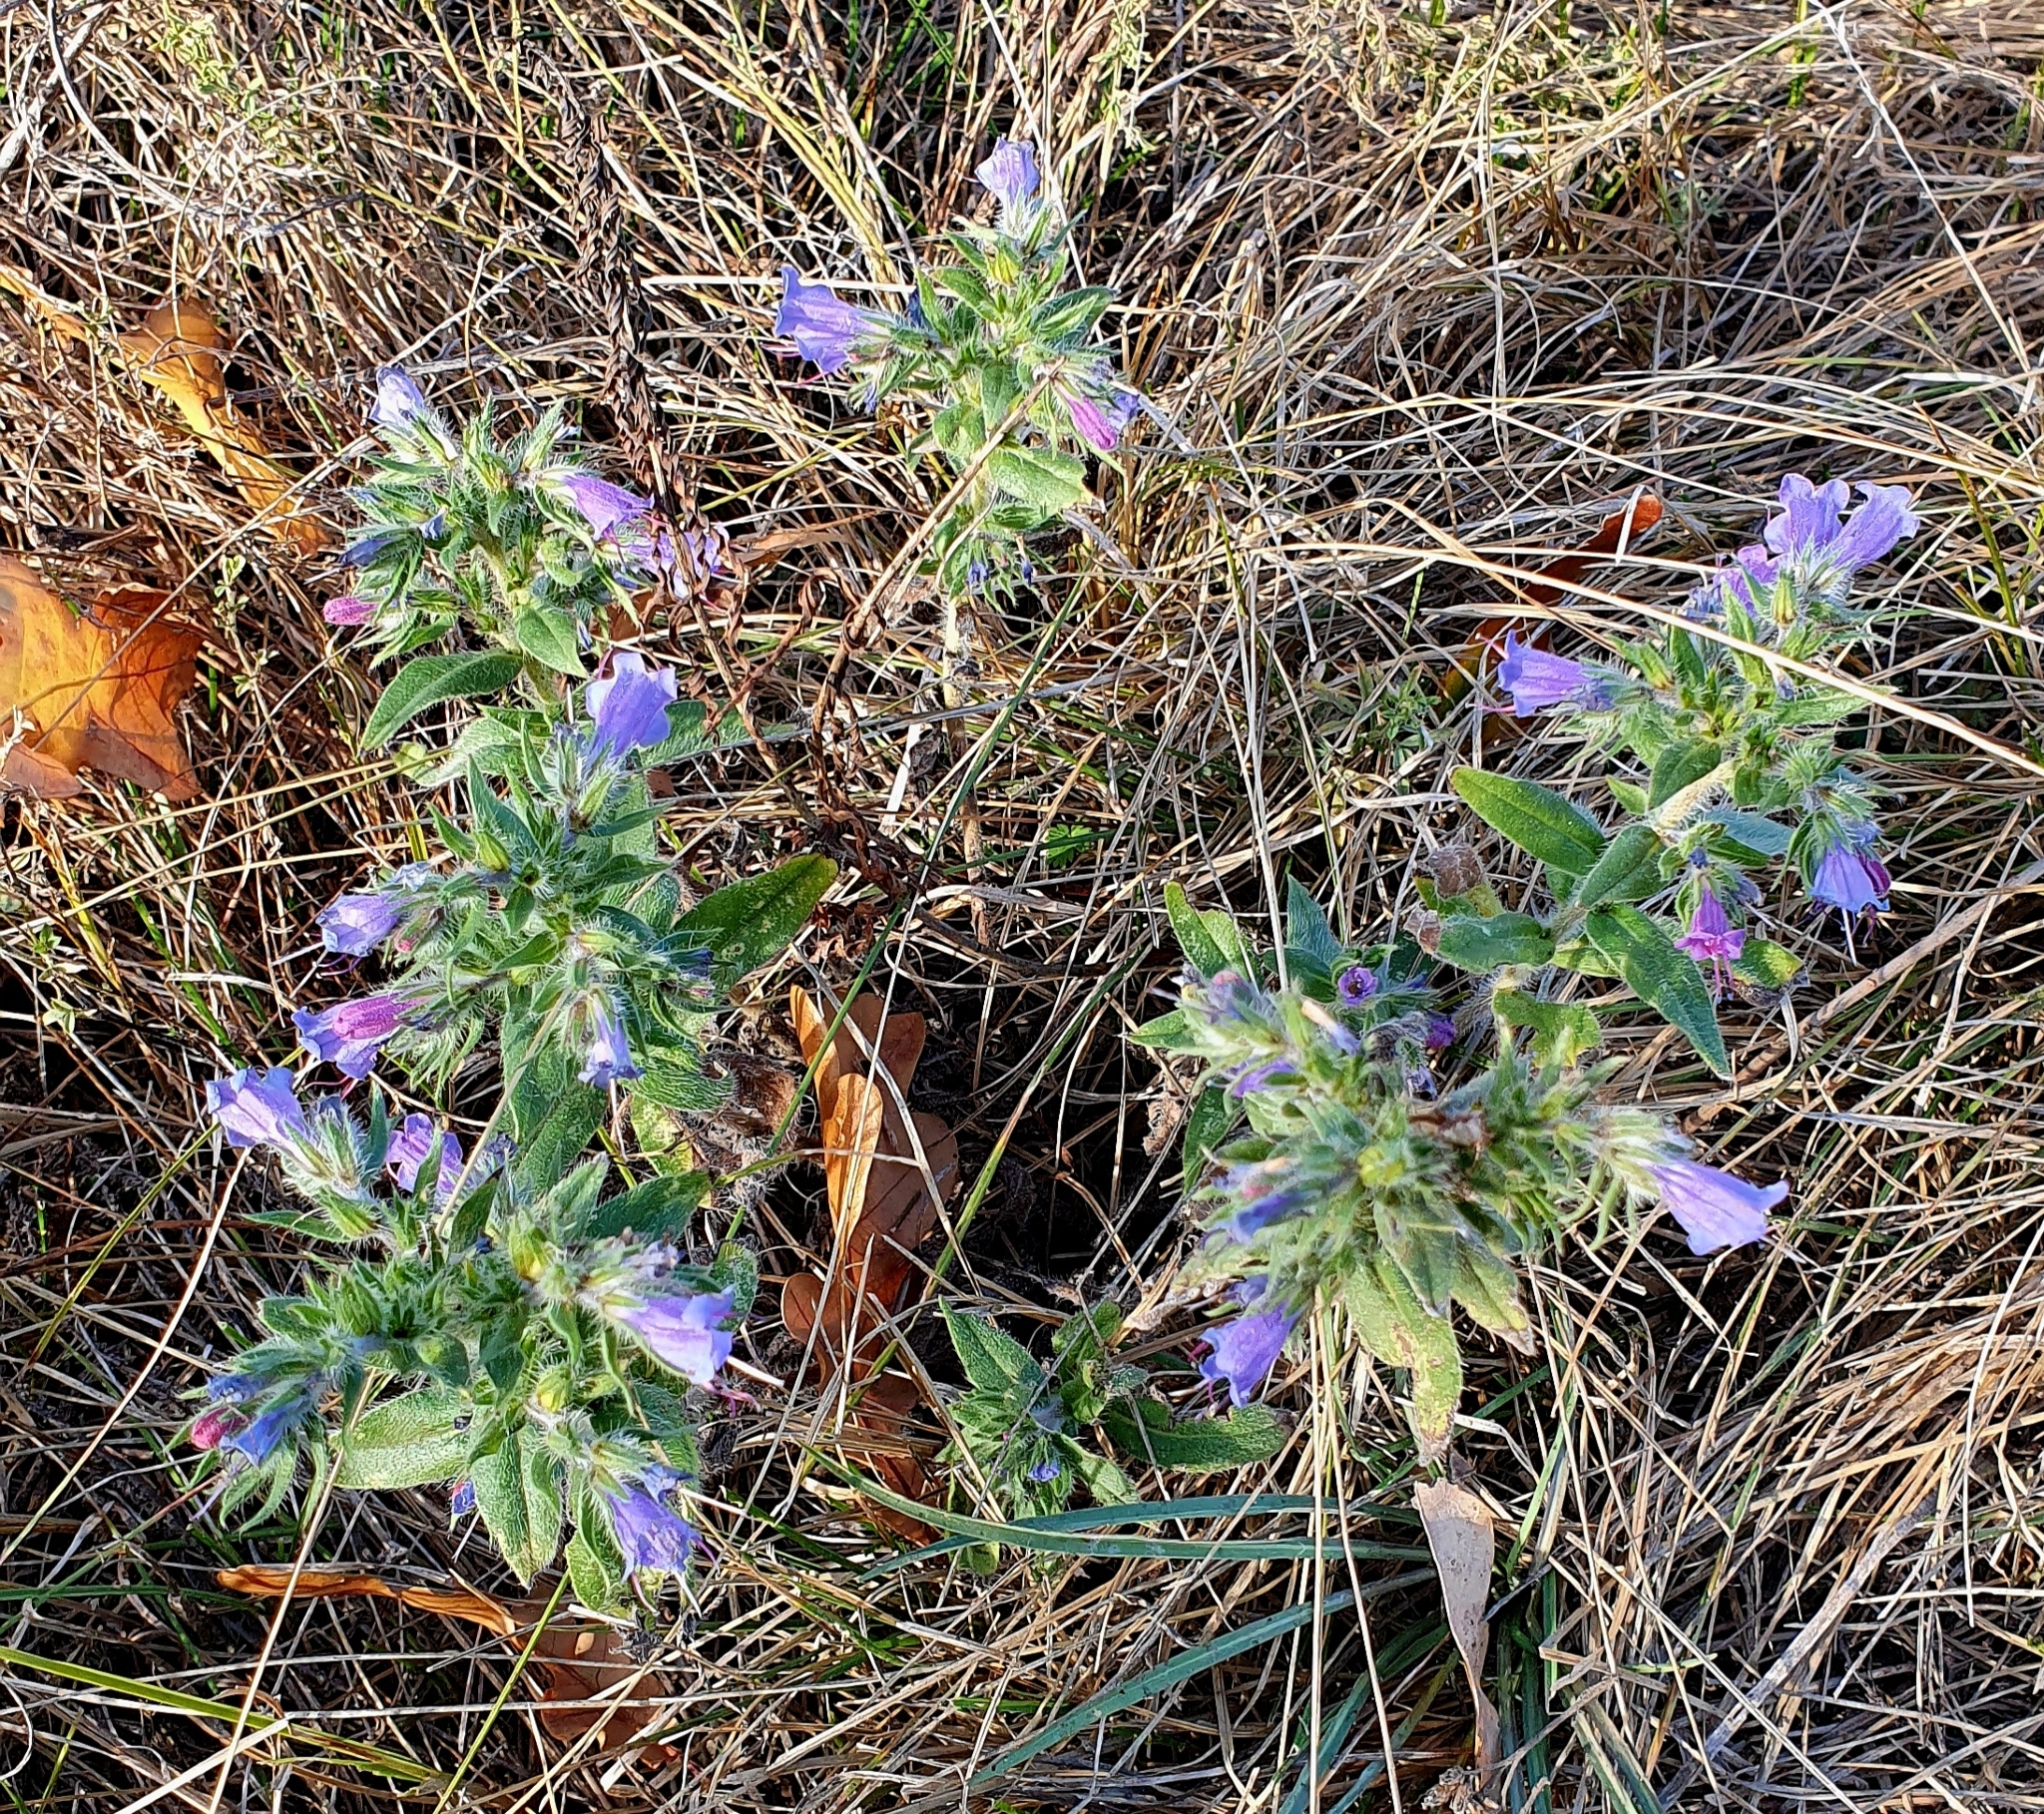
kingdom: Plantae
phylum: Tracheophyta
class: Magnoliopsida
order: Boraginales
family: Boraginaceae
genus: Echium
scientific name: Echium vulgare
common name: Common viper's bugloss
